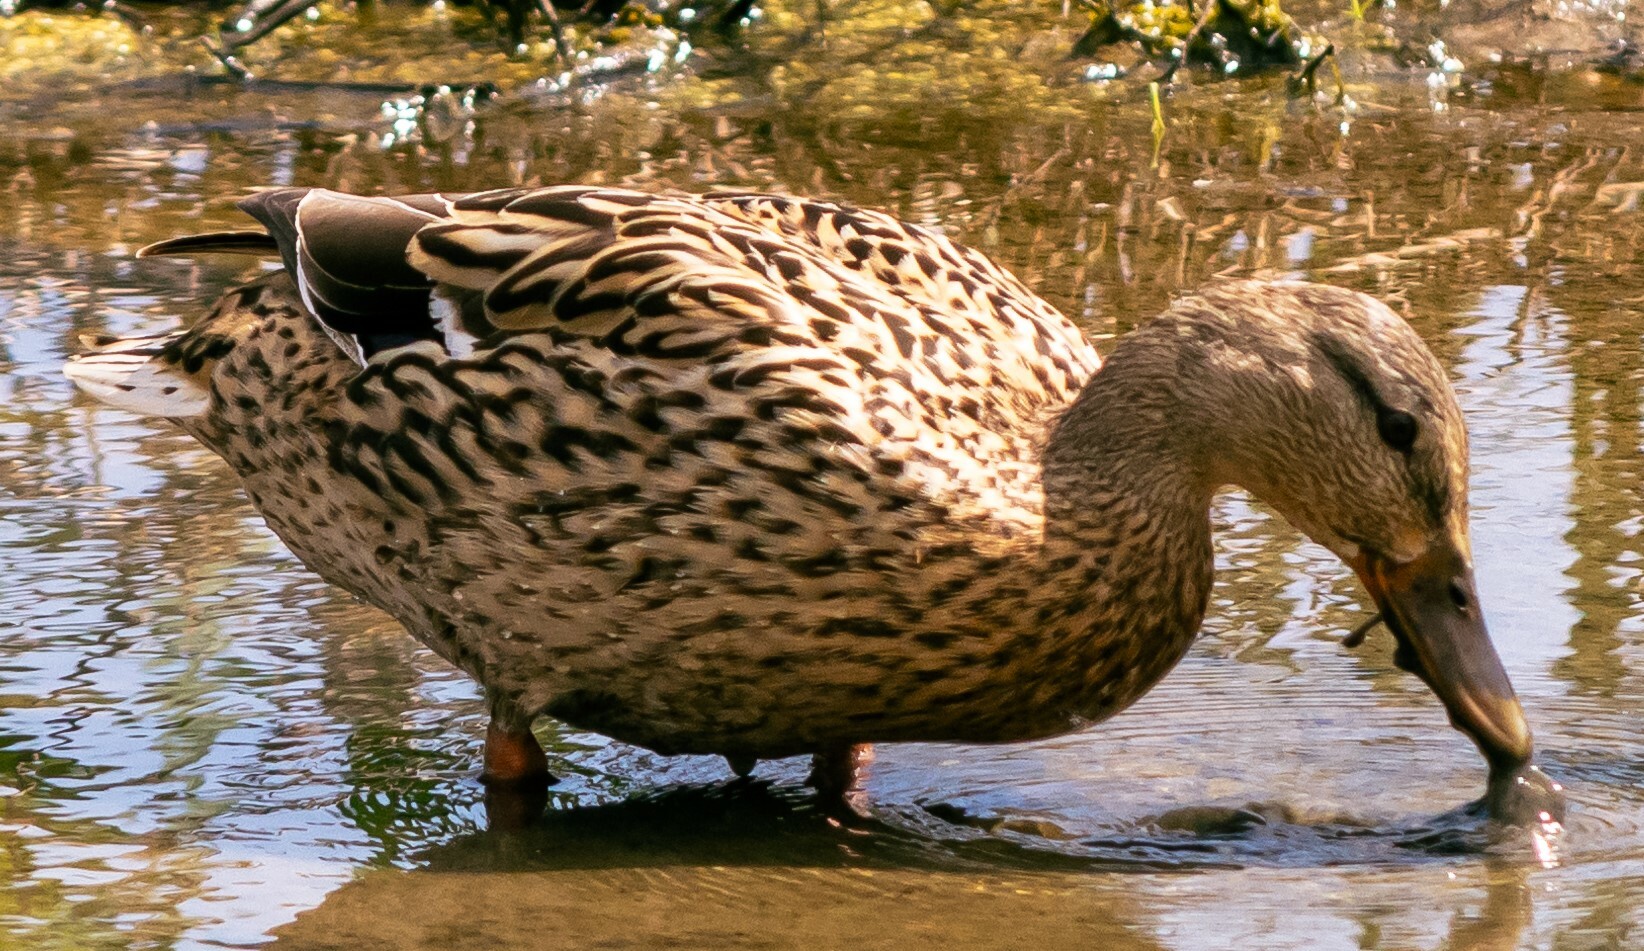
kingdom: Animalia
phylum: Chordata
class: Aves
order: Anseriformes
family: Anatidae
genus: Anas
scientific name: Anas platyrhynchos
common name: Mallard
